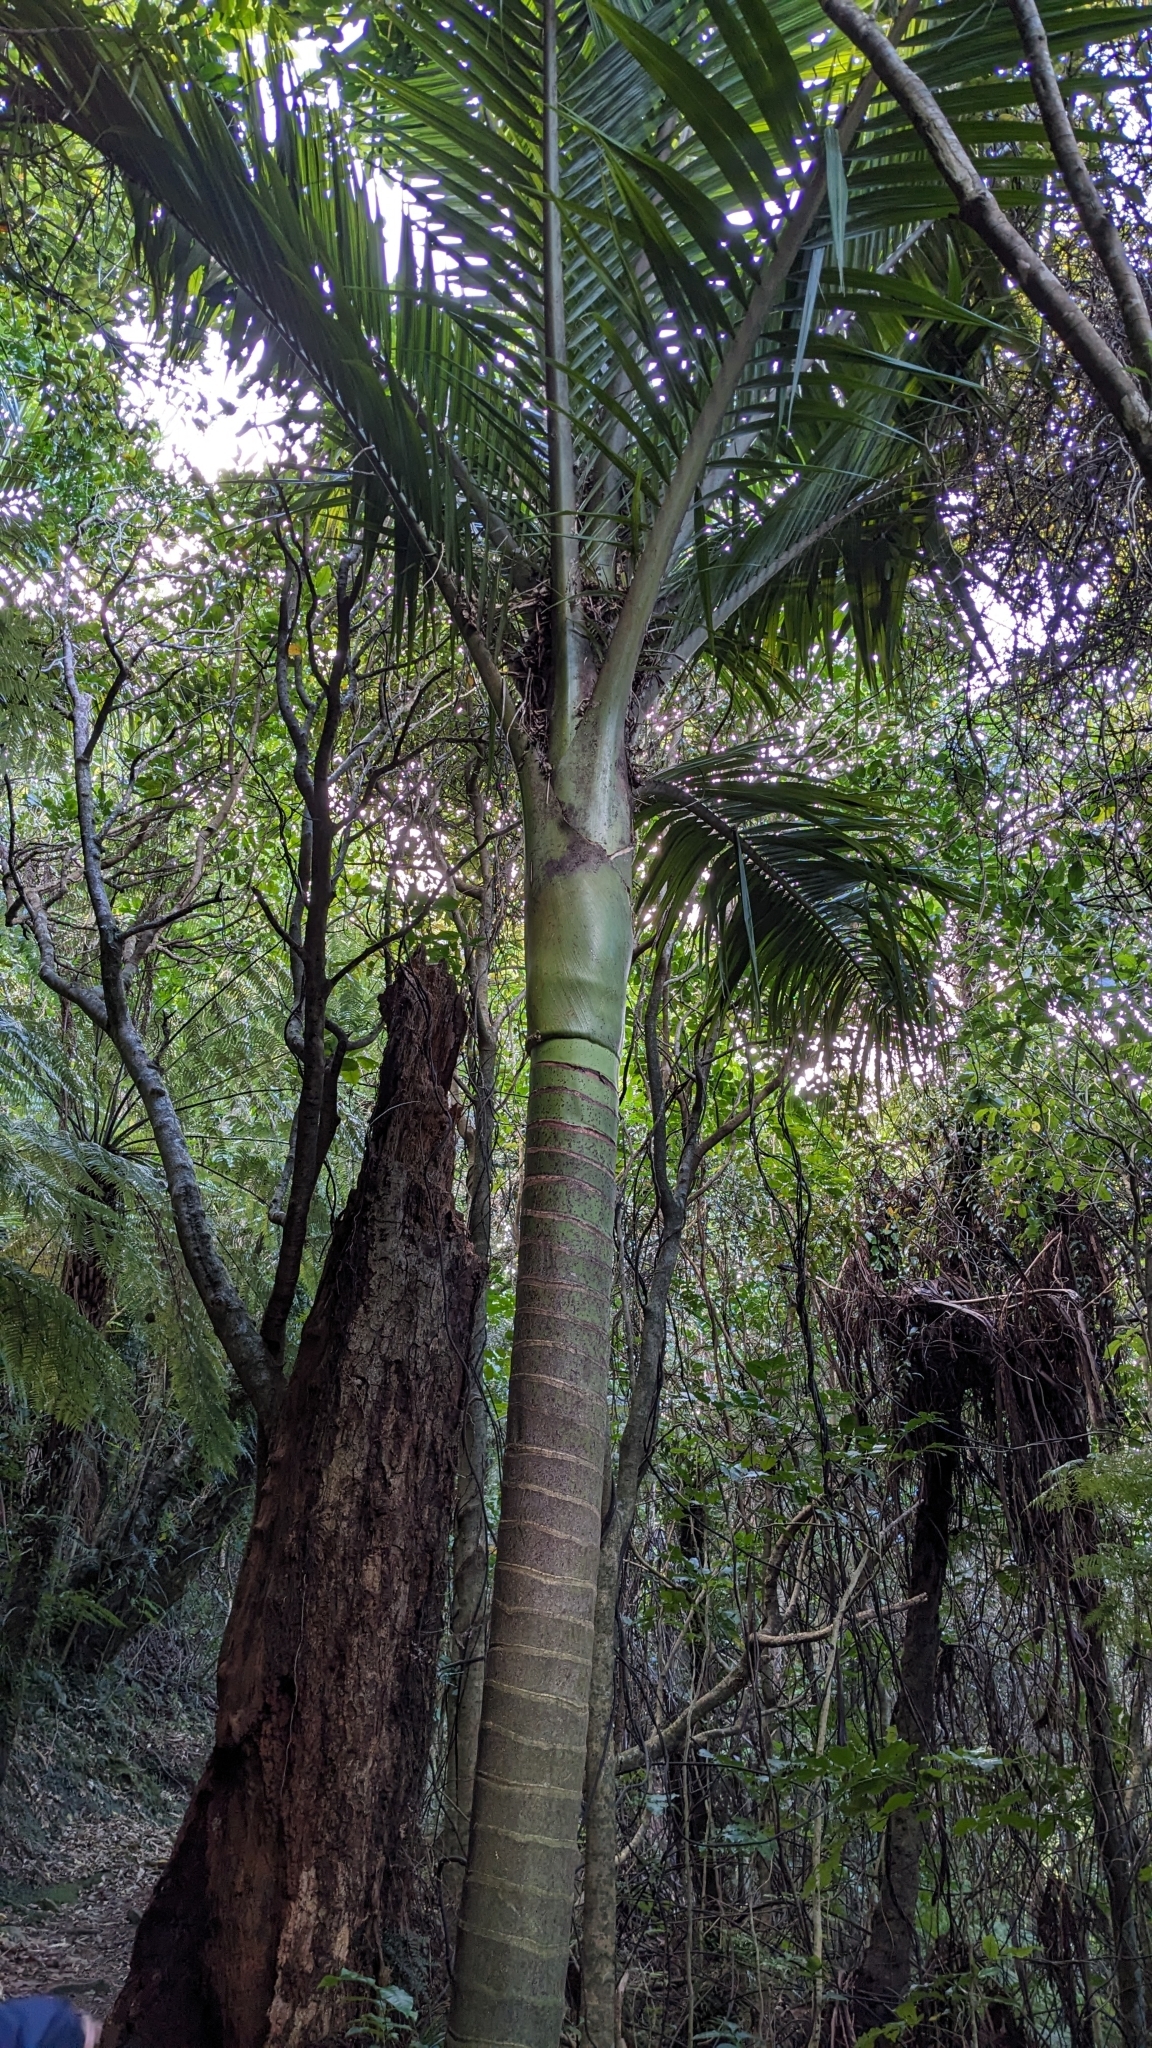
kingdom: Plantae
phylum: Tracheophyta
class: Liliopsida
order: Arecales
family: Arecaceae
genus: Rhopalostylis
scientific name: Rhopalostylis sapida
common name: Feather-duster palm
